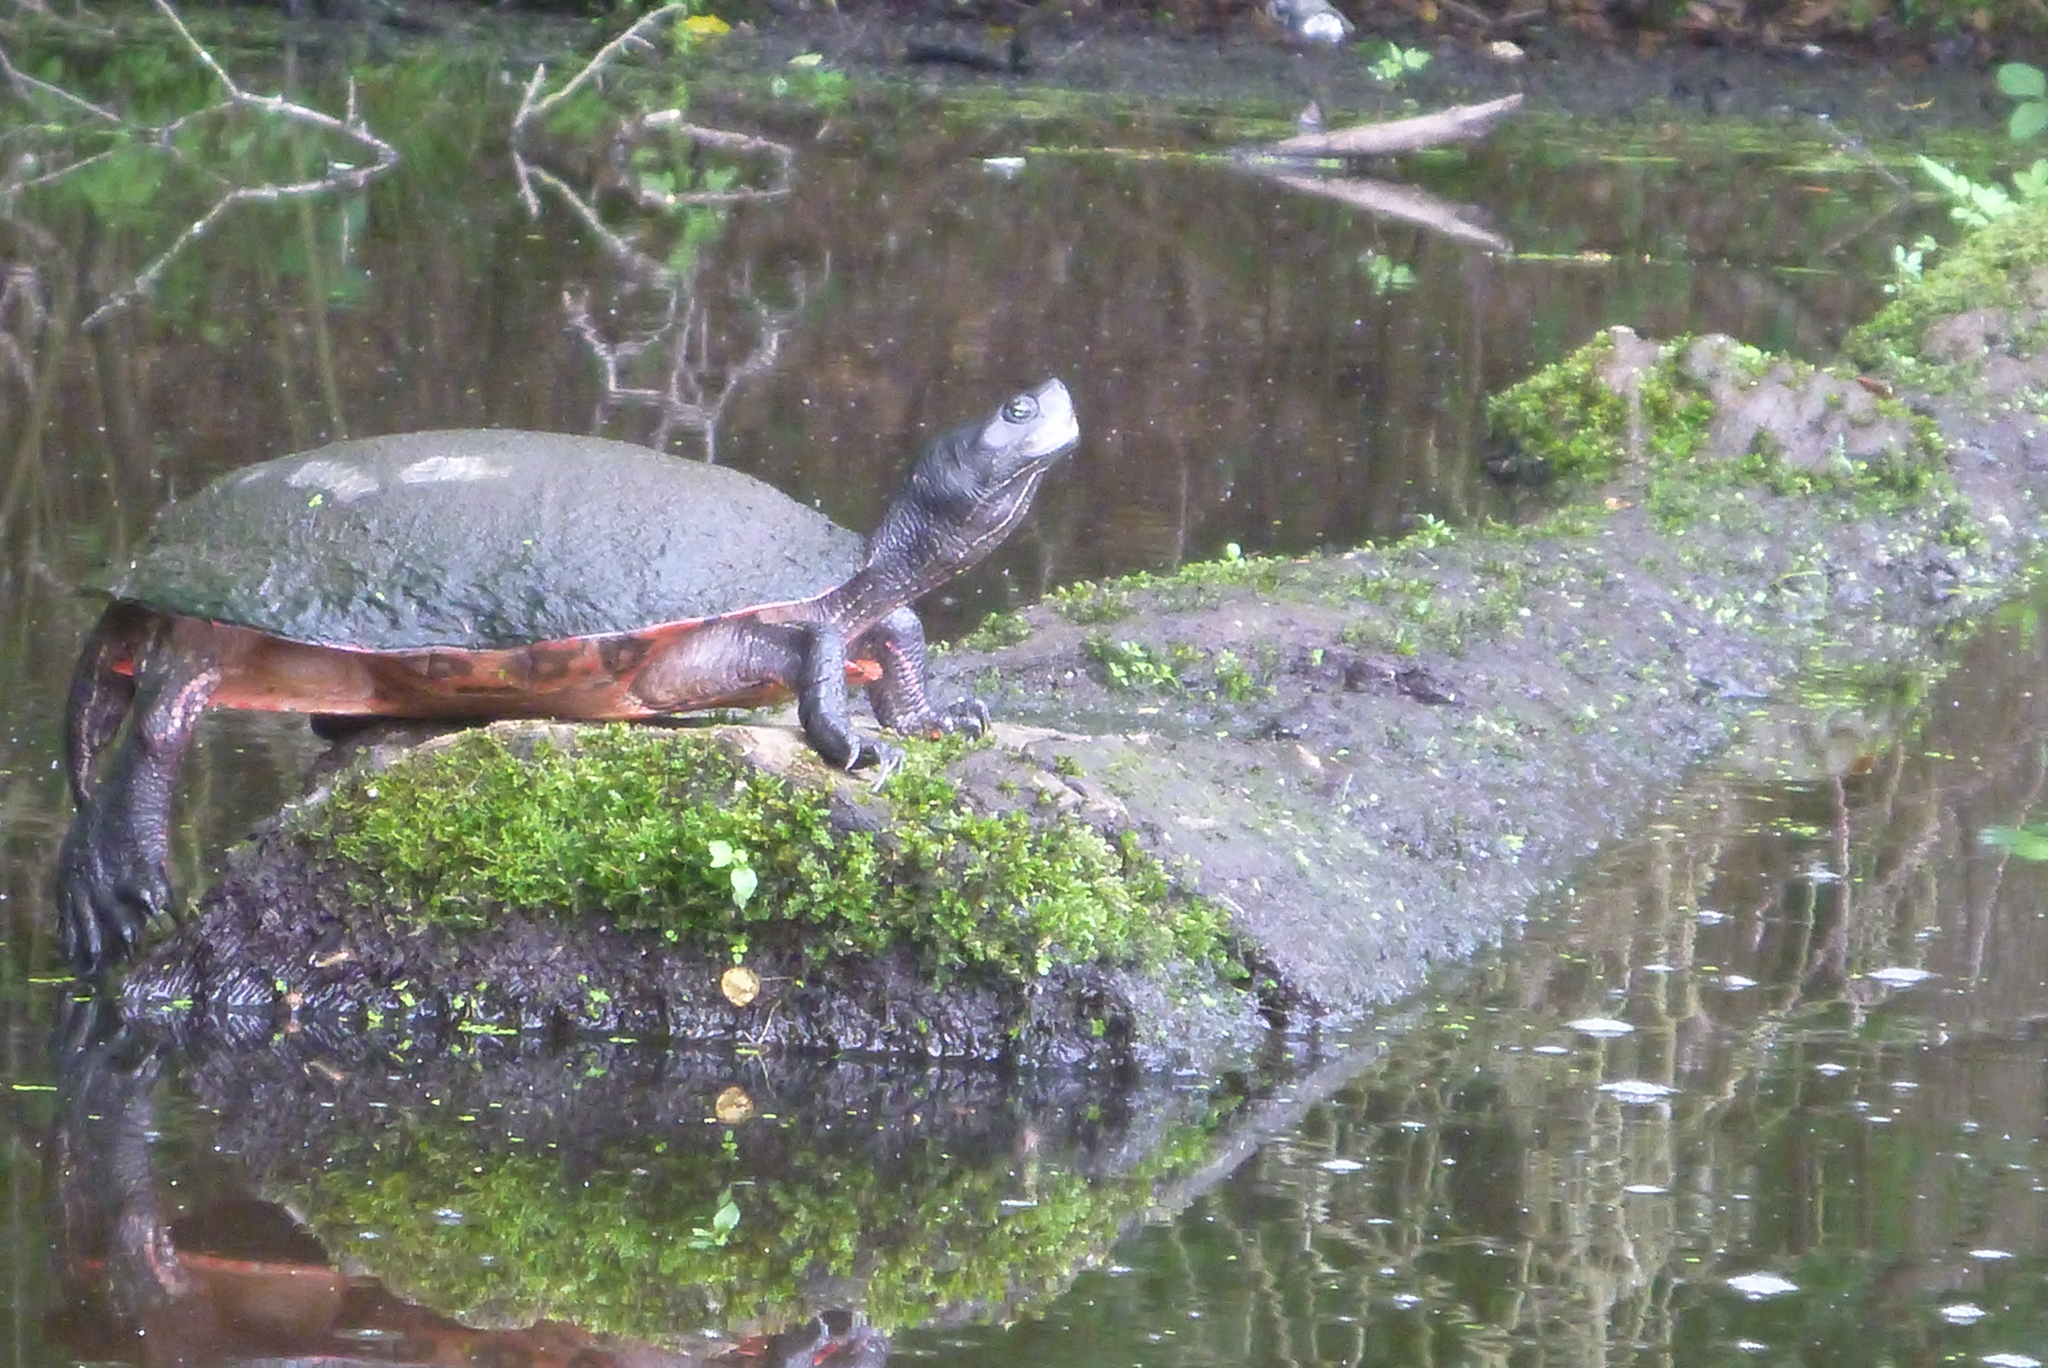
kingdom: Animalia
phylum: Chordata
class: Testudines
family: Emydidae
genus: Pseudemys
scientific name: Pseudemys rubriventris
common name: American red-bellied turtle
